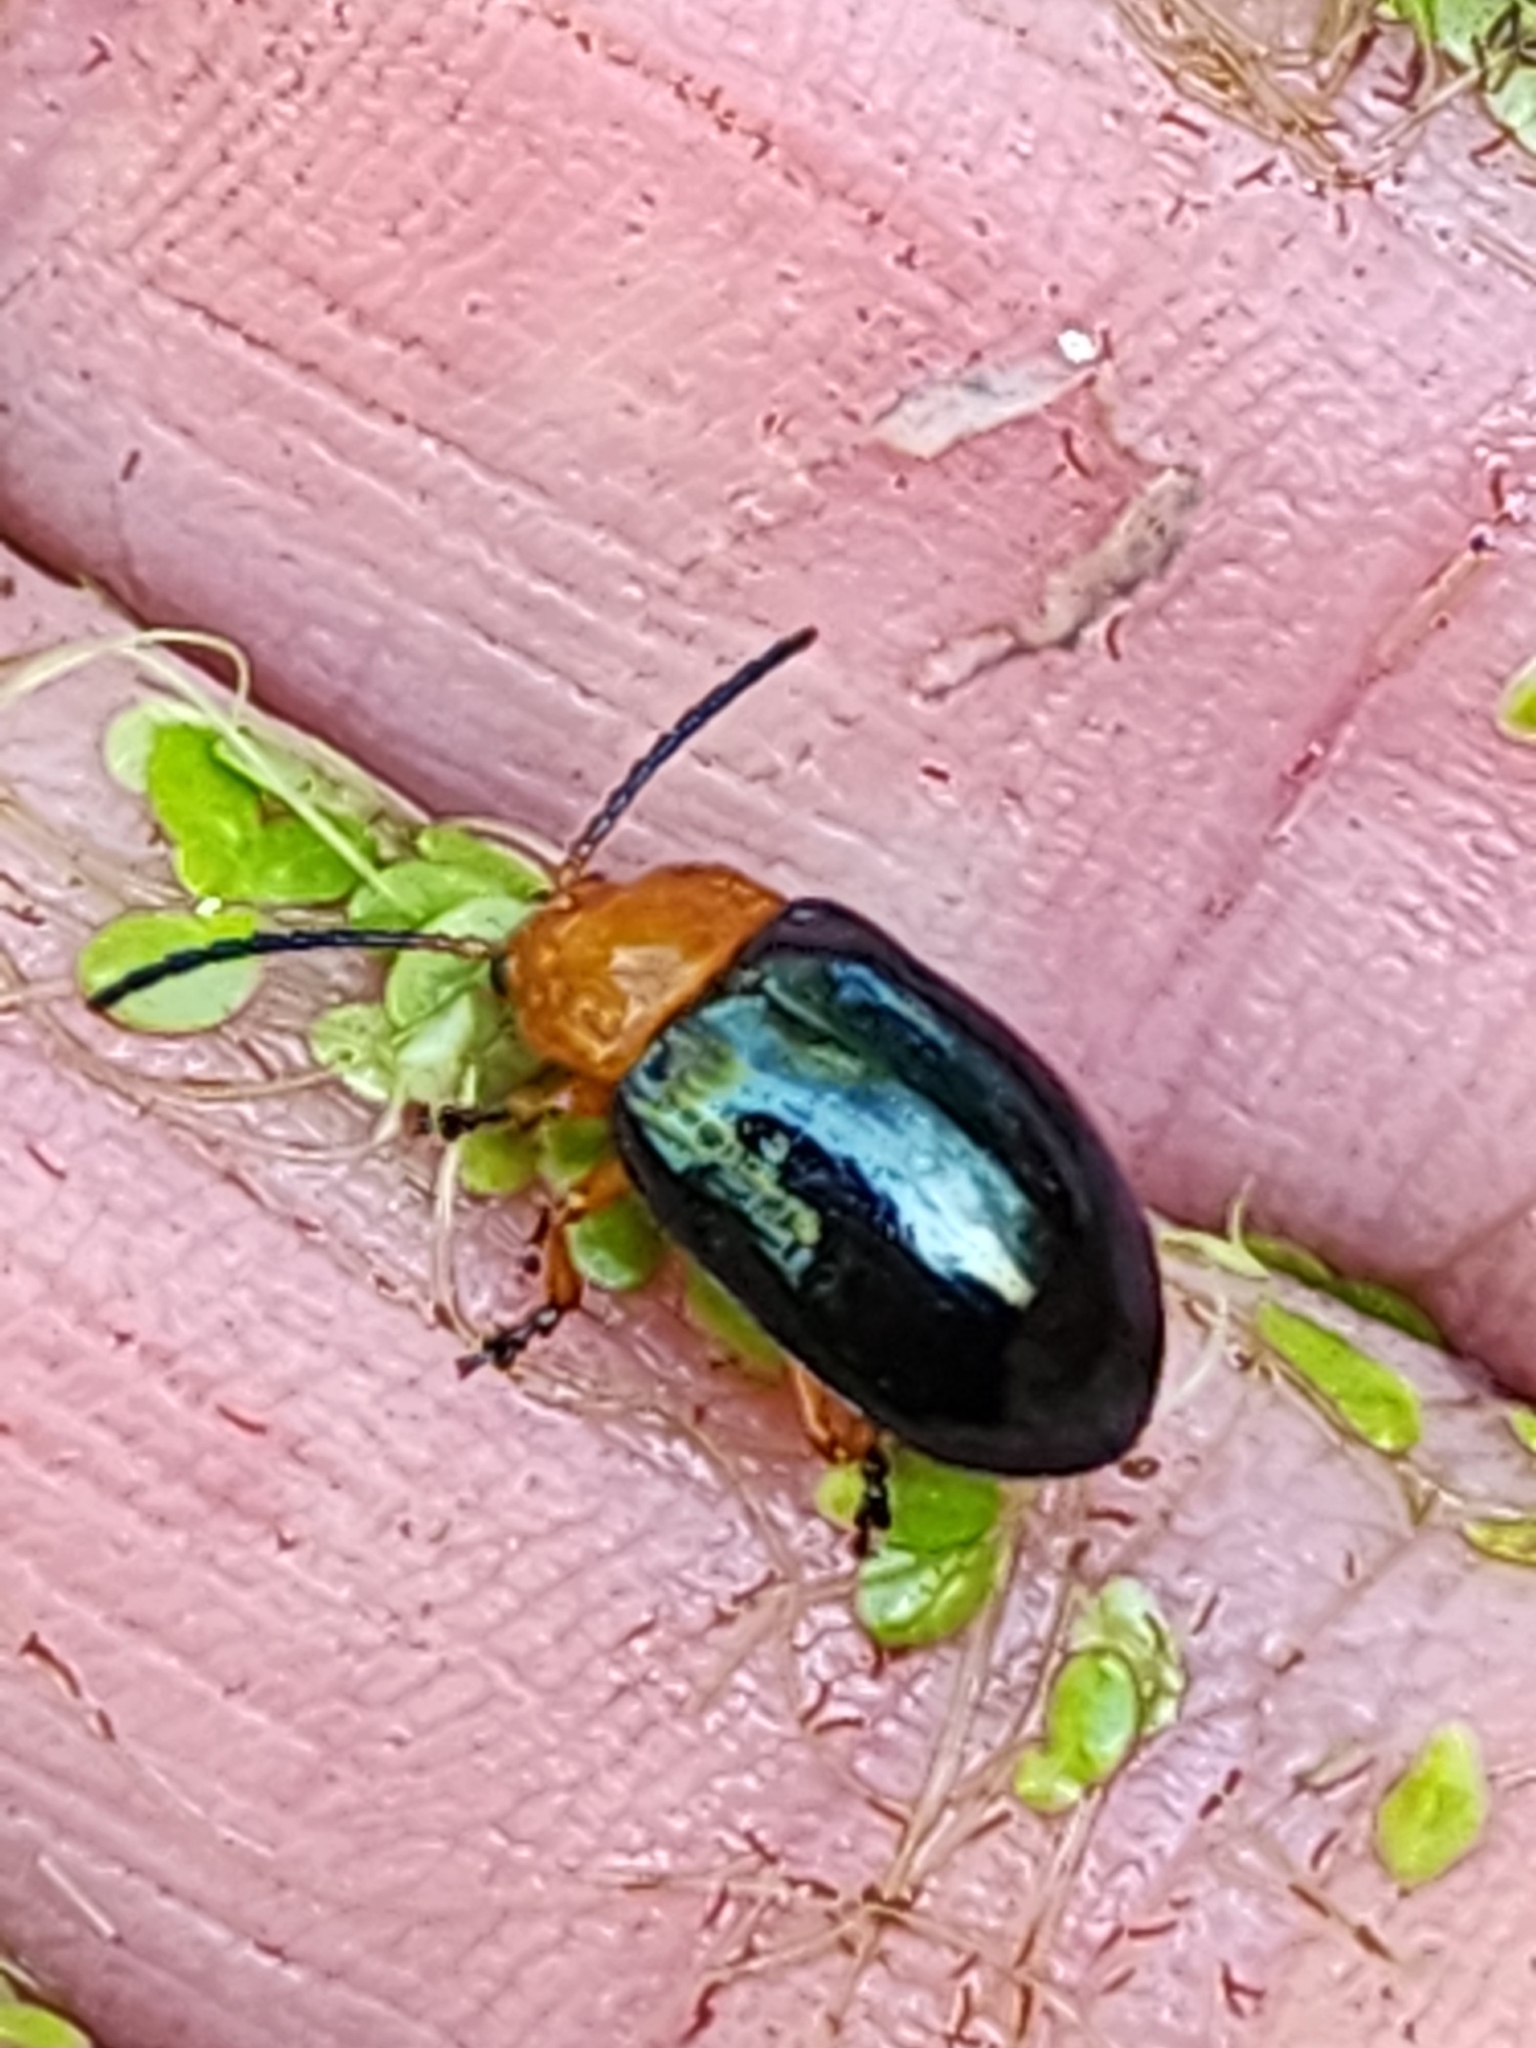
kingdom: Animalia
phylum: Arthropoda
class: Insecta
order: Coleoptera
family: Chrysomelidae
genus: Lamprolina
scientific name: Lamprolina
